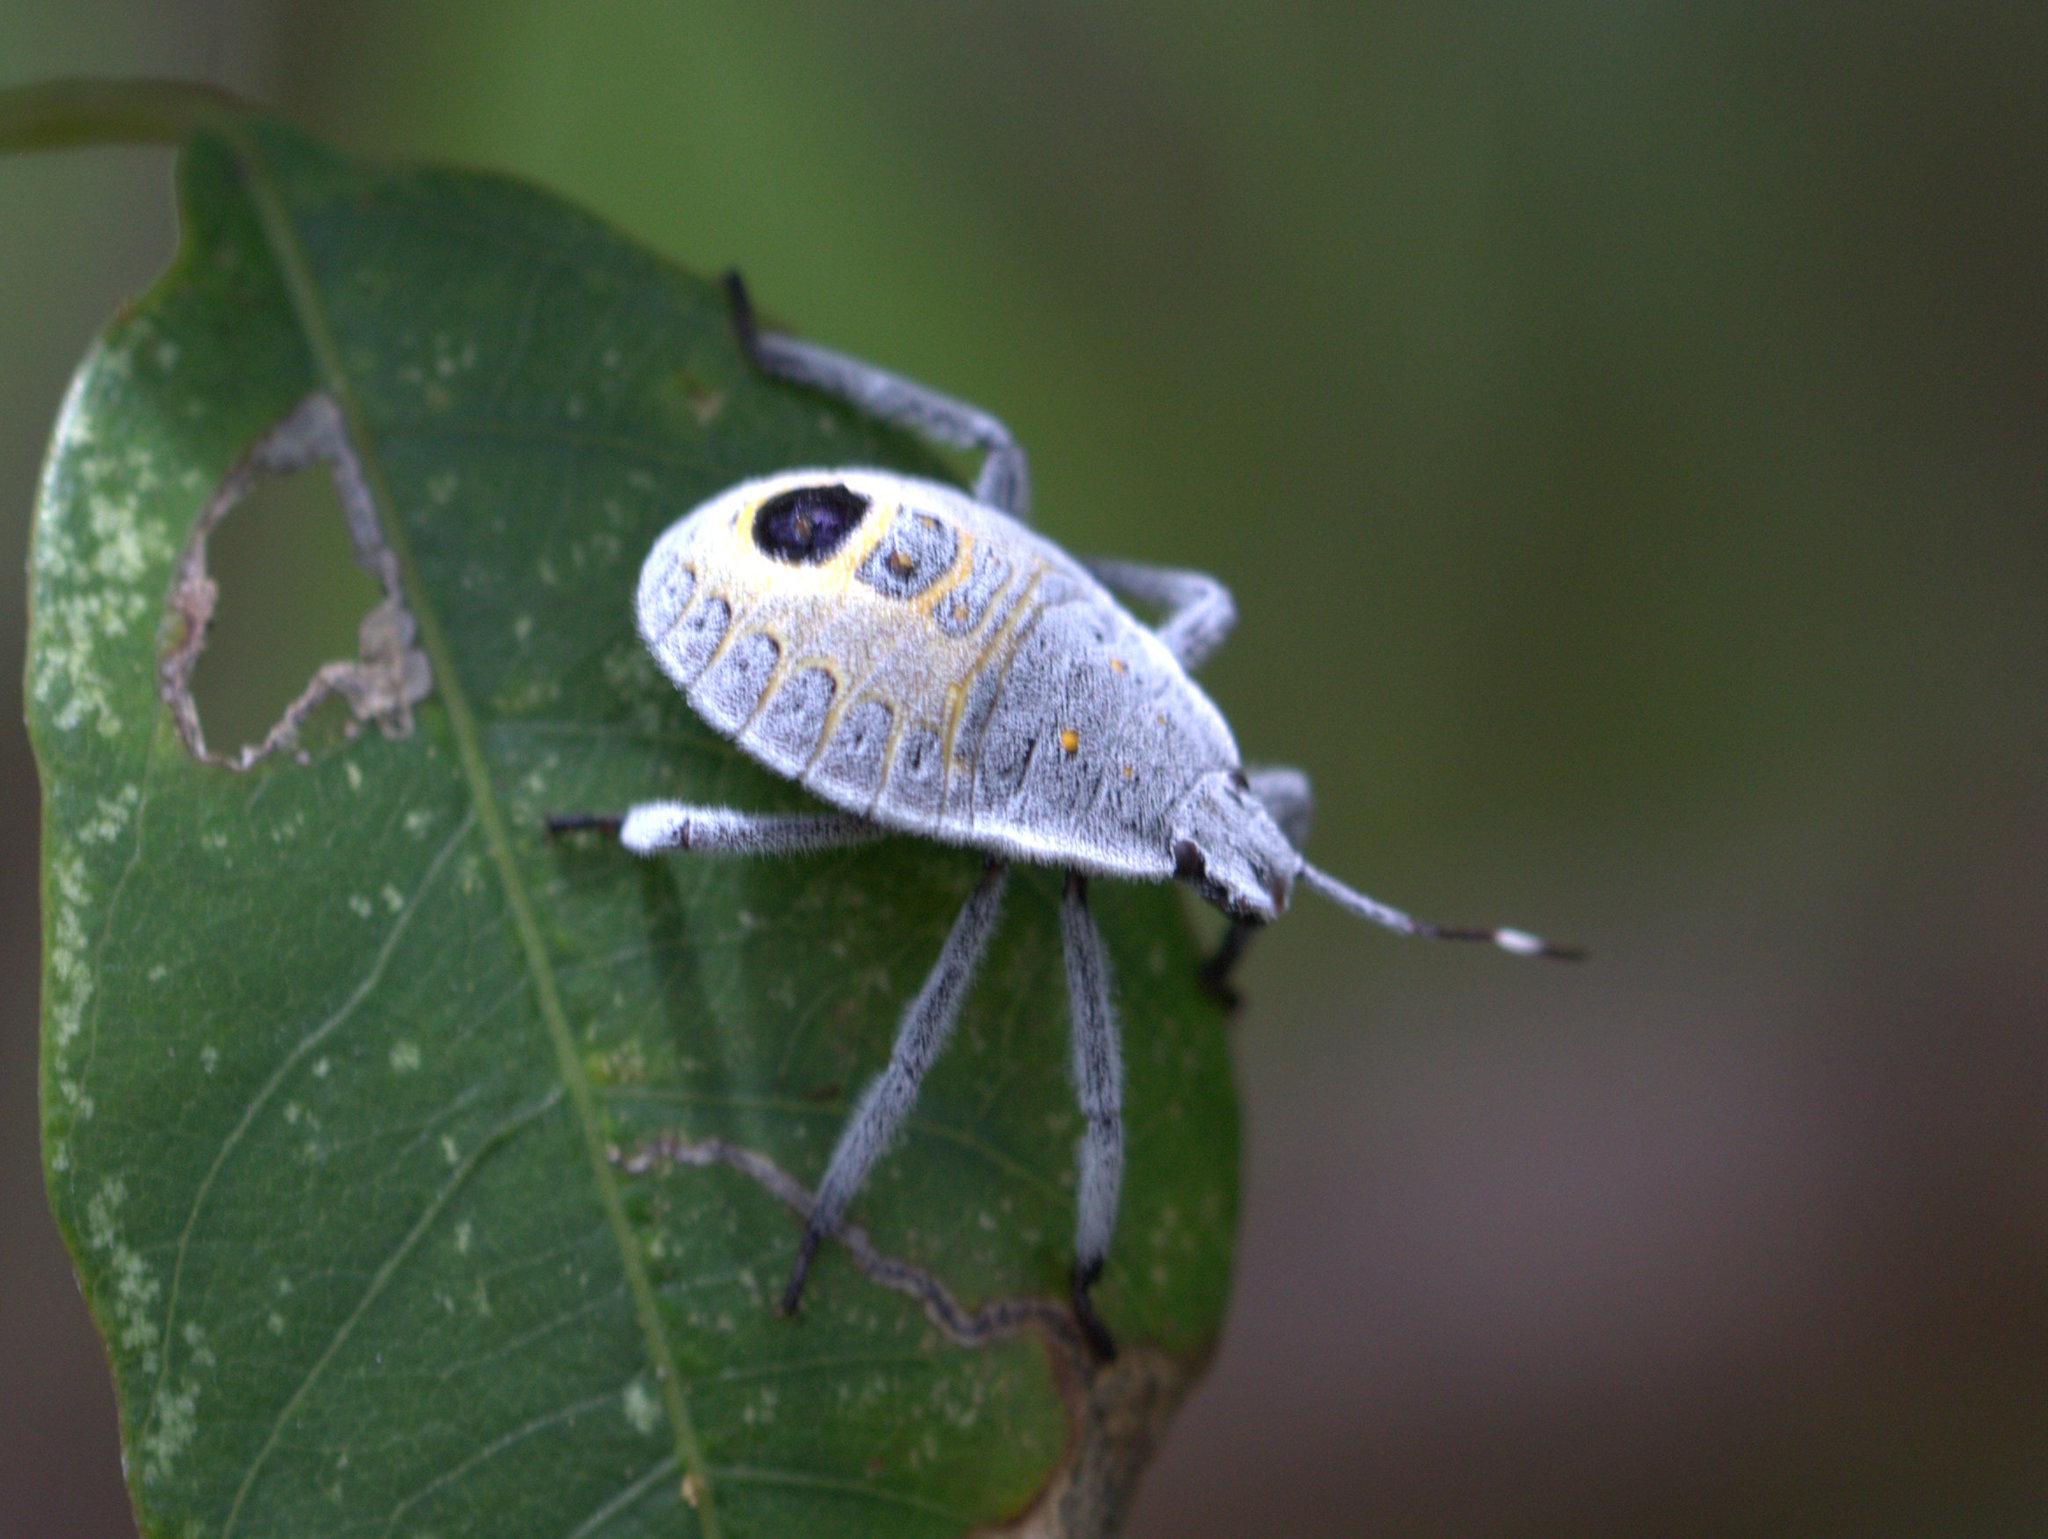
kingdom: Animalia
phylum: Arthropoda
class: Insecta
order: Hemiptera
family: Pentatomidae
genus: Erthesina
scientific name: Erthesina acuminata
